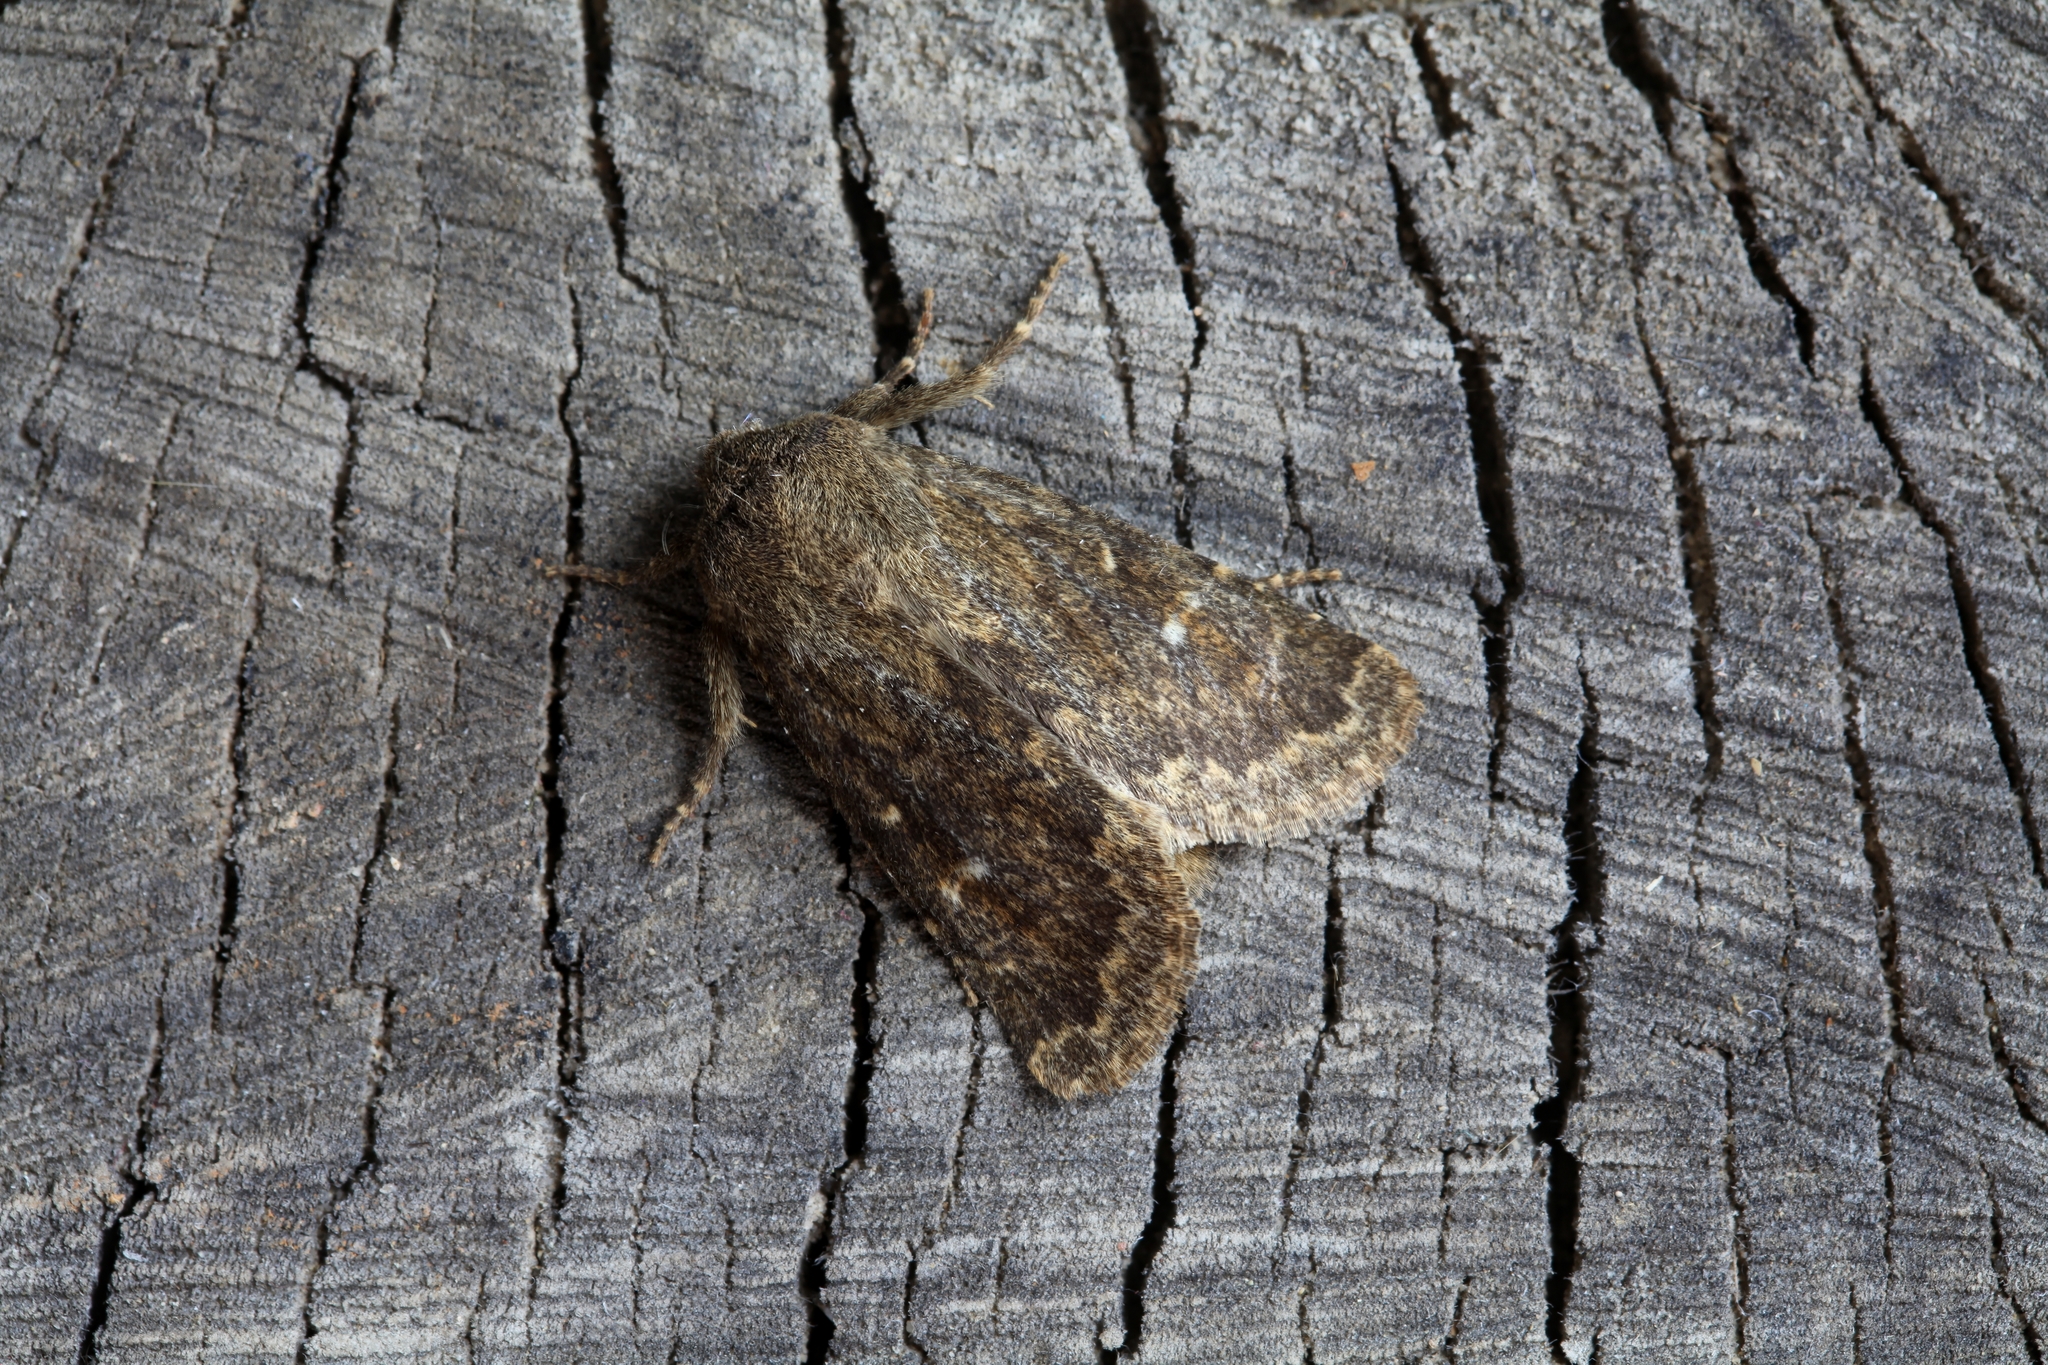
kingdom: Animalia
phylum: Arthropoda
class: Insecta
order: Lepidoptera
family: Noctuidae
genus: Dasypolia
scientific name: Dasypolia templi
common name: Brindled ochre
